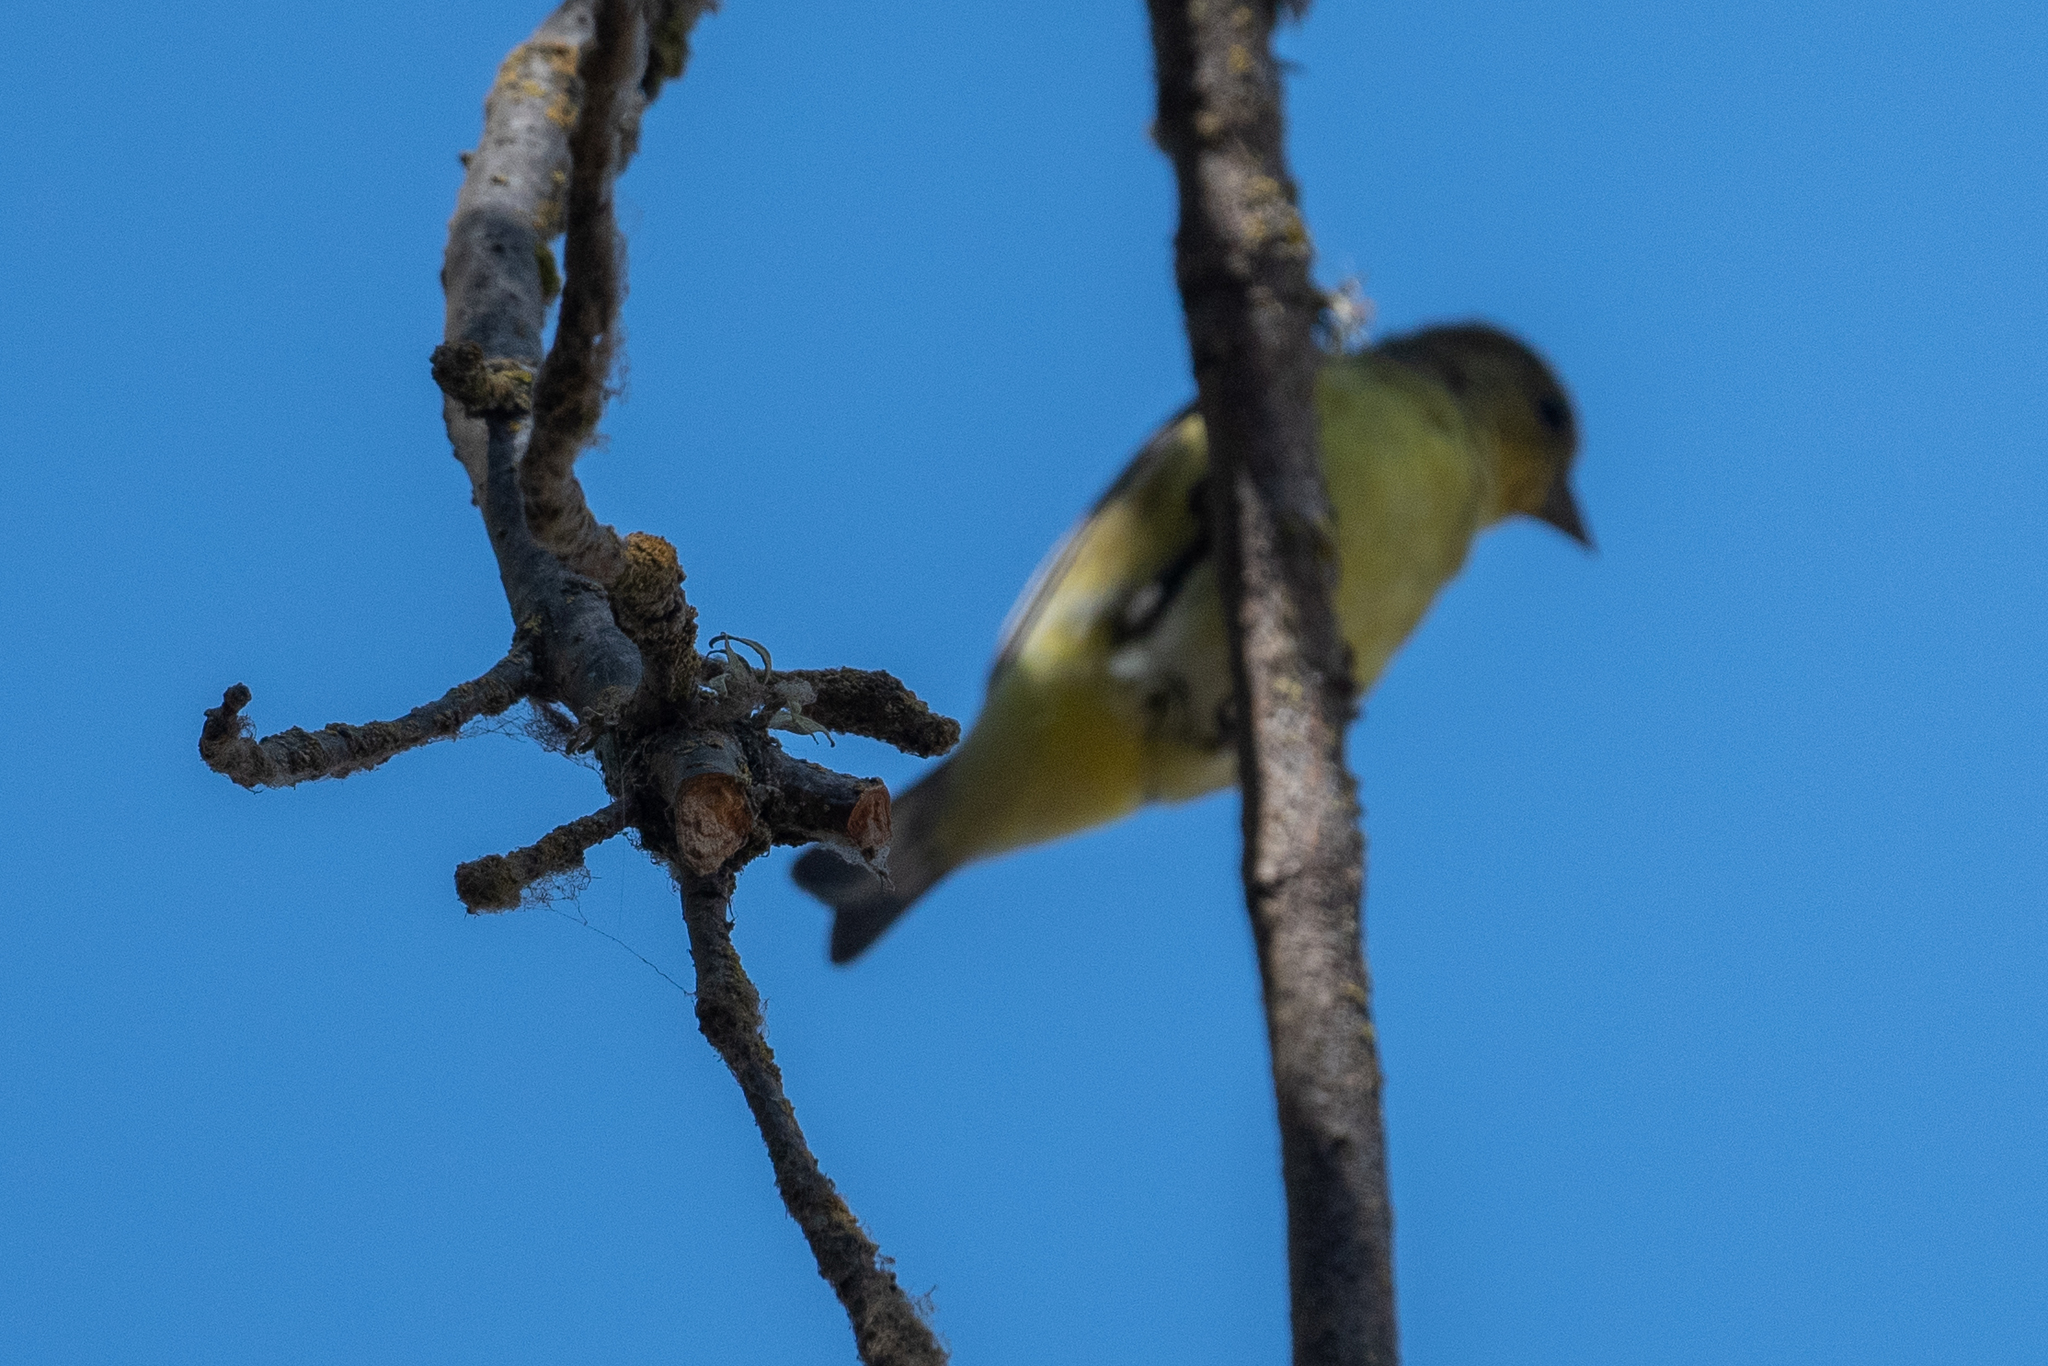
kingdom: Animalia
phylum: Chordata
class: Aves
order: Passeriformes
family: Fringillidae
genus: Spinus
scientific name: Spinus psaltria
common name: Lesser goldfinch
